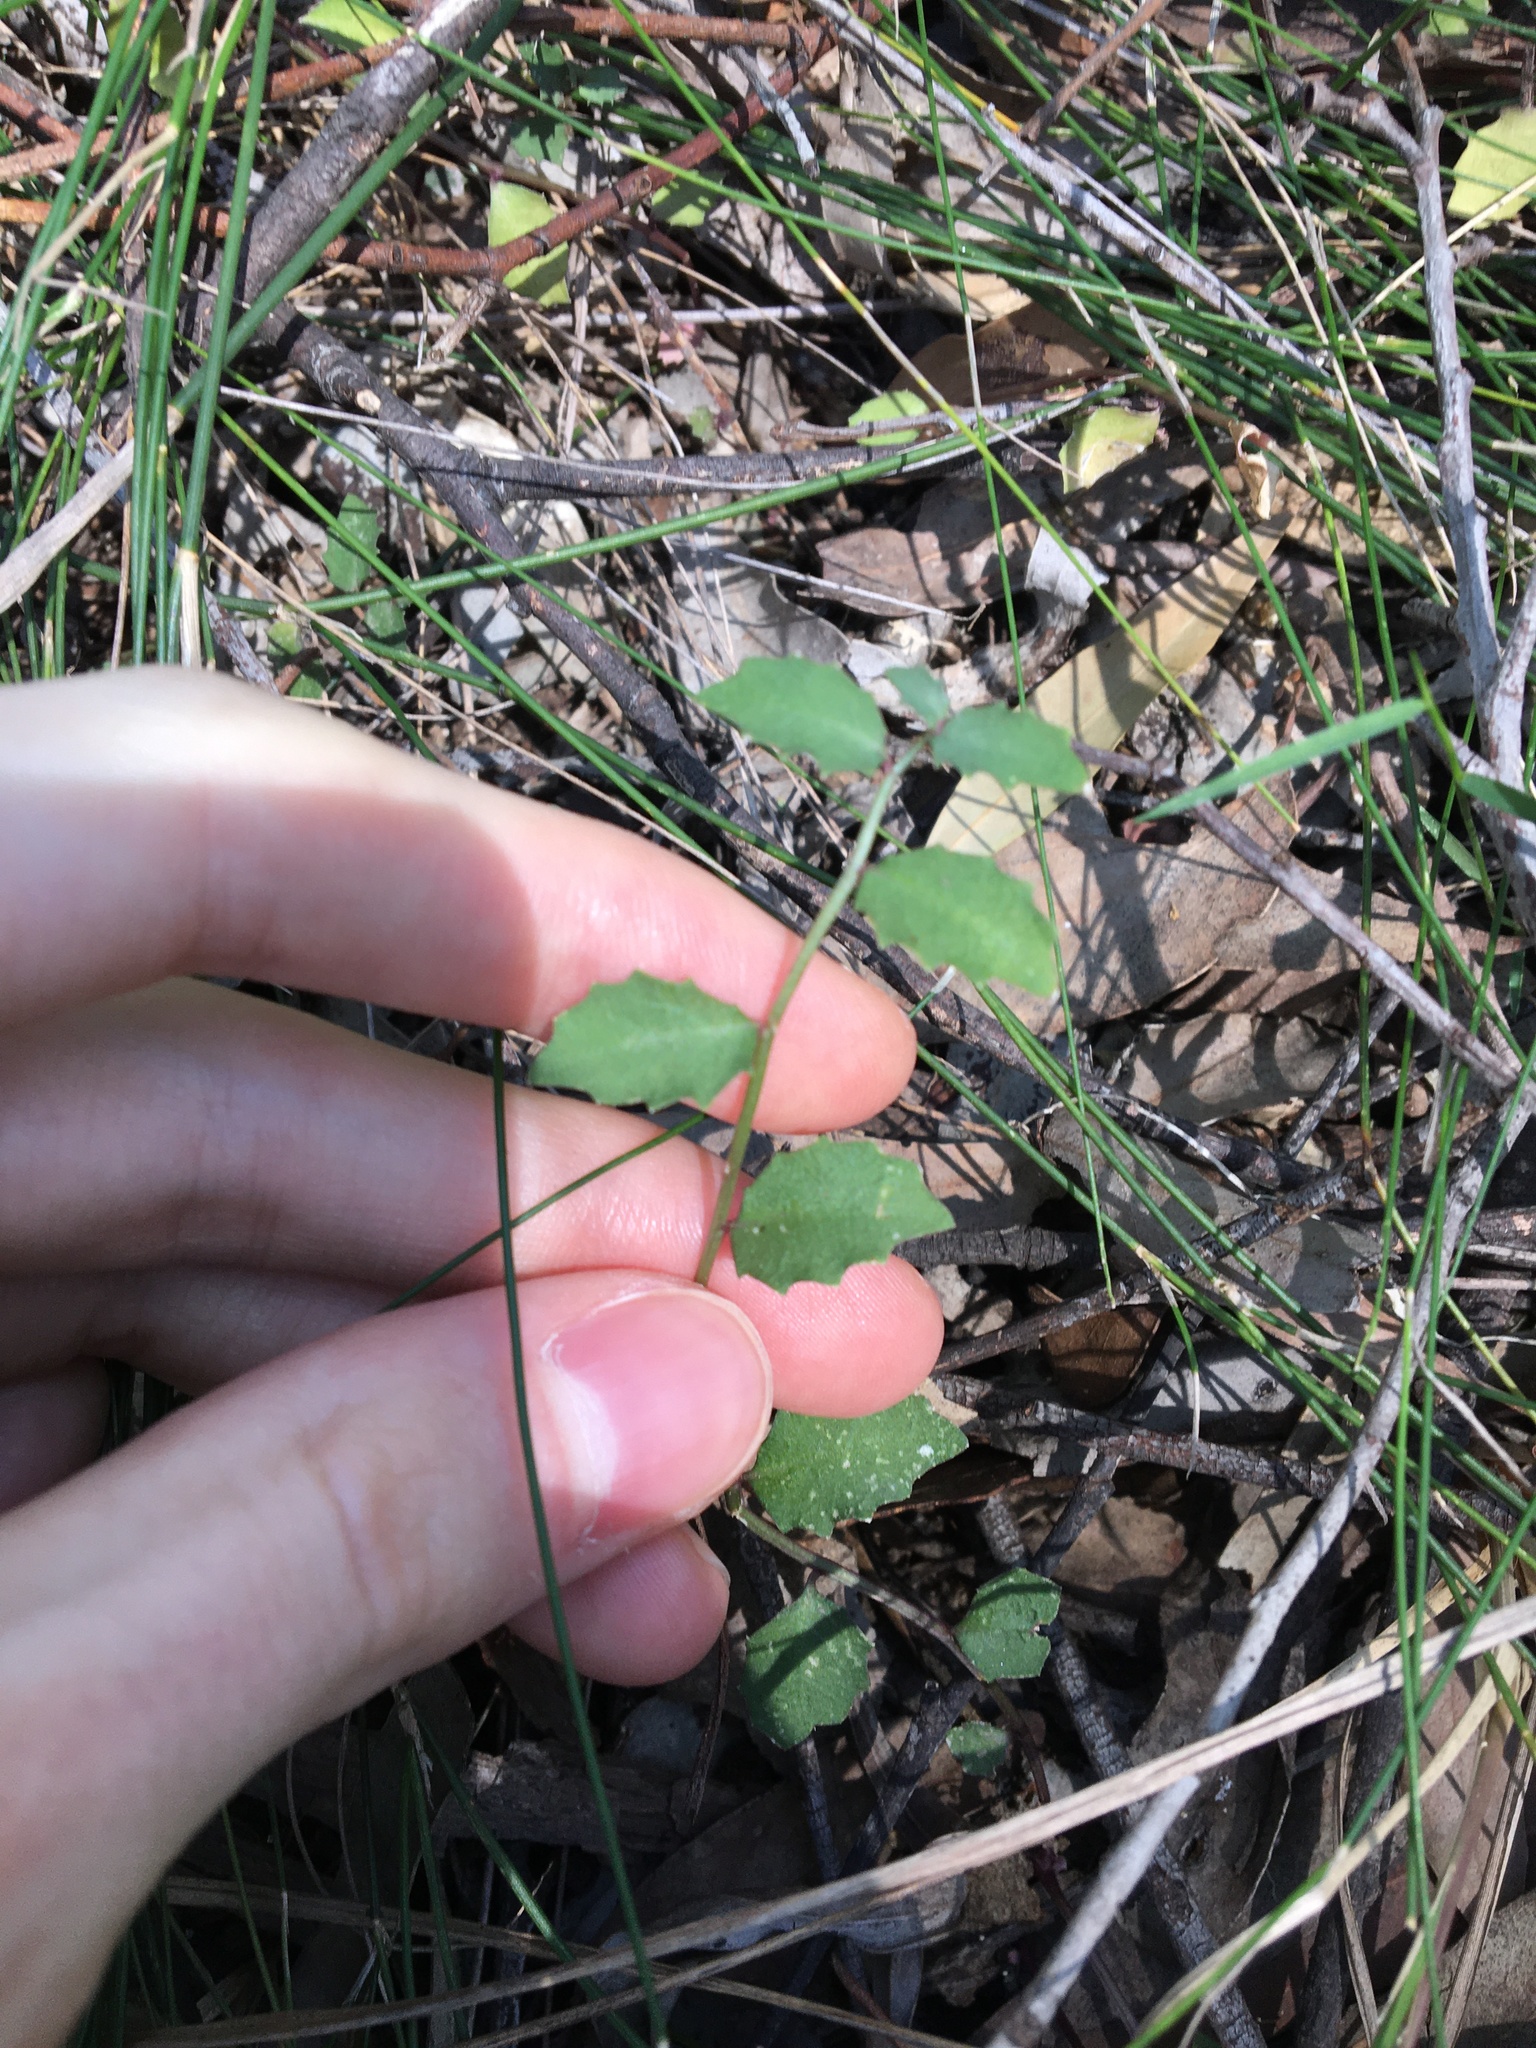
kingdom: Plantae
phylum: Tracheophyta
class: Magnoliopsida
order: Asterales
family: Campanulaceae
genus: Lobelia
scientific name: Lobelia purpurascens
